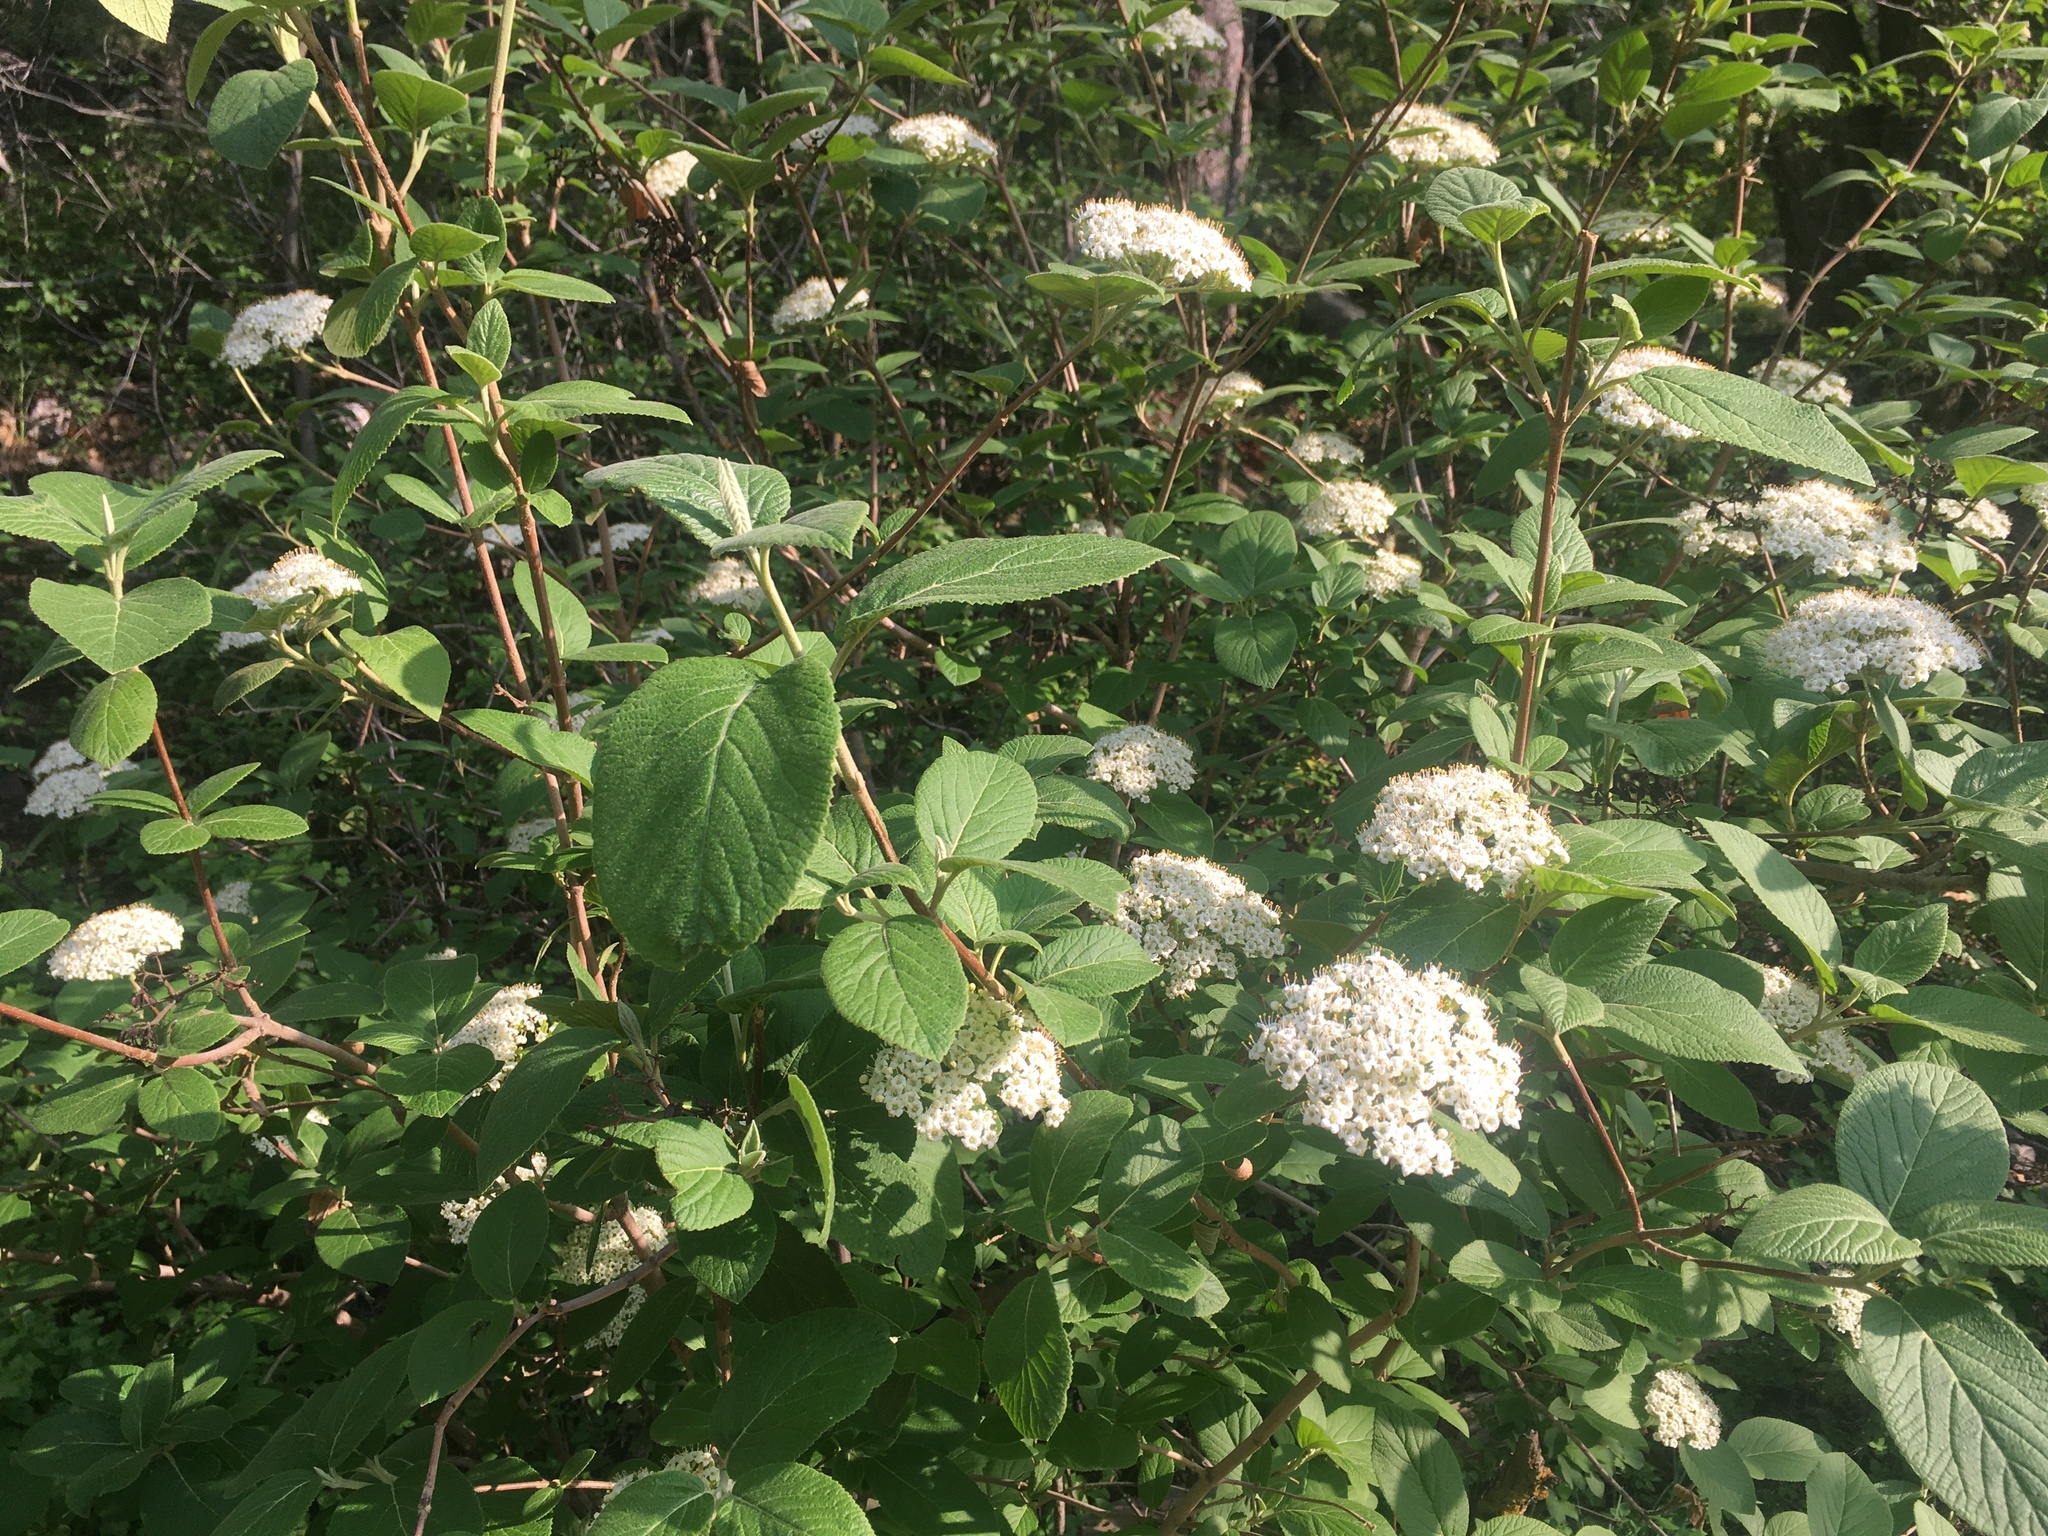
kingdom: Plantae
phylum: Tracheophyta
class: Magnoliopsida
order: Dipsacales
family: Viburnaceae
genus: Viburnum
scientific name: Viburnum lantana
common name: Wayfaring tree
